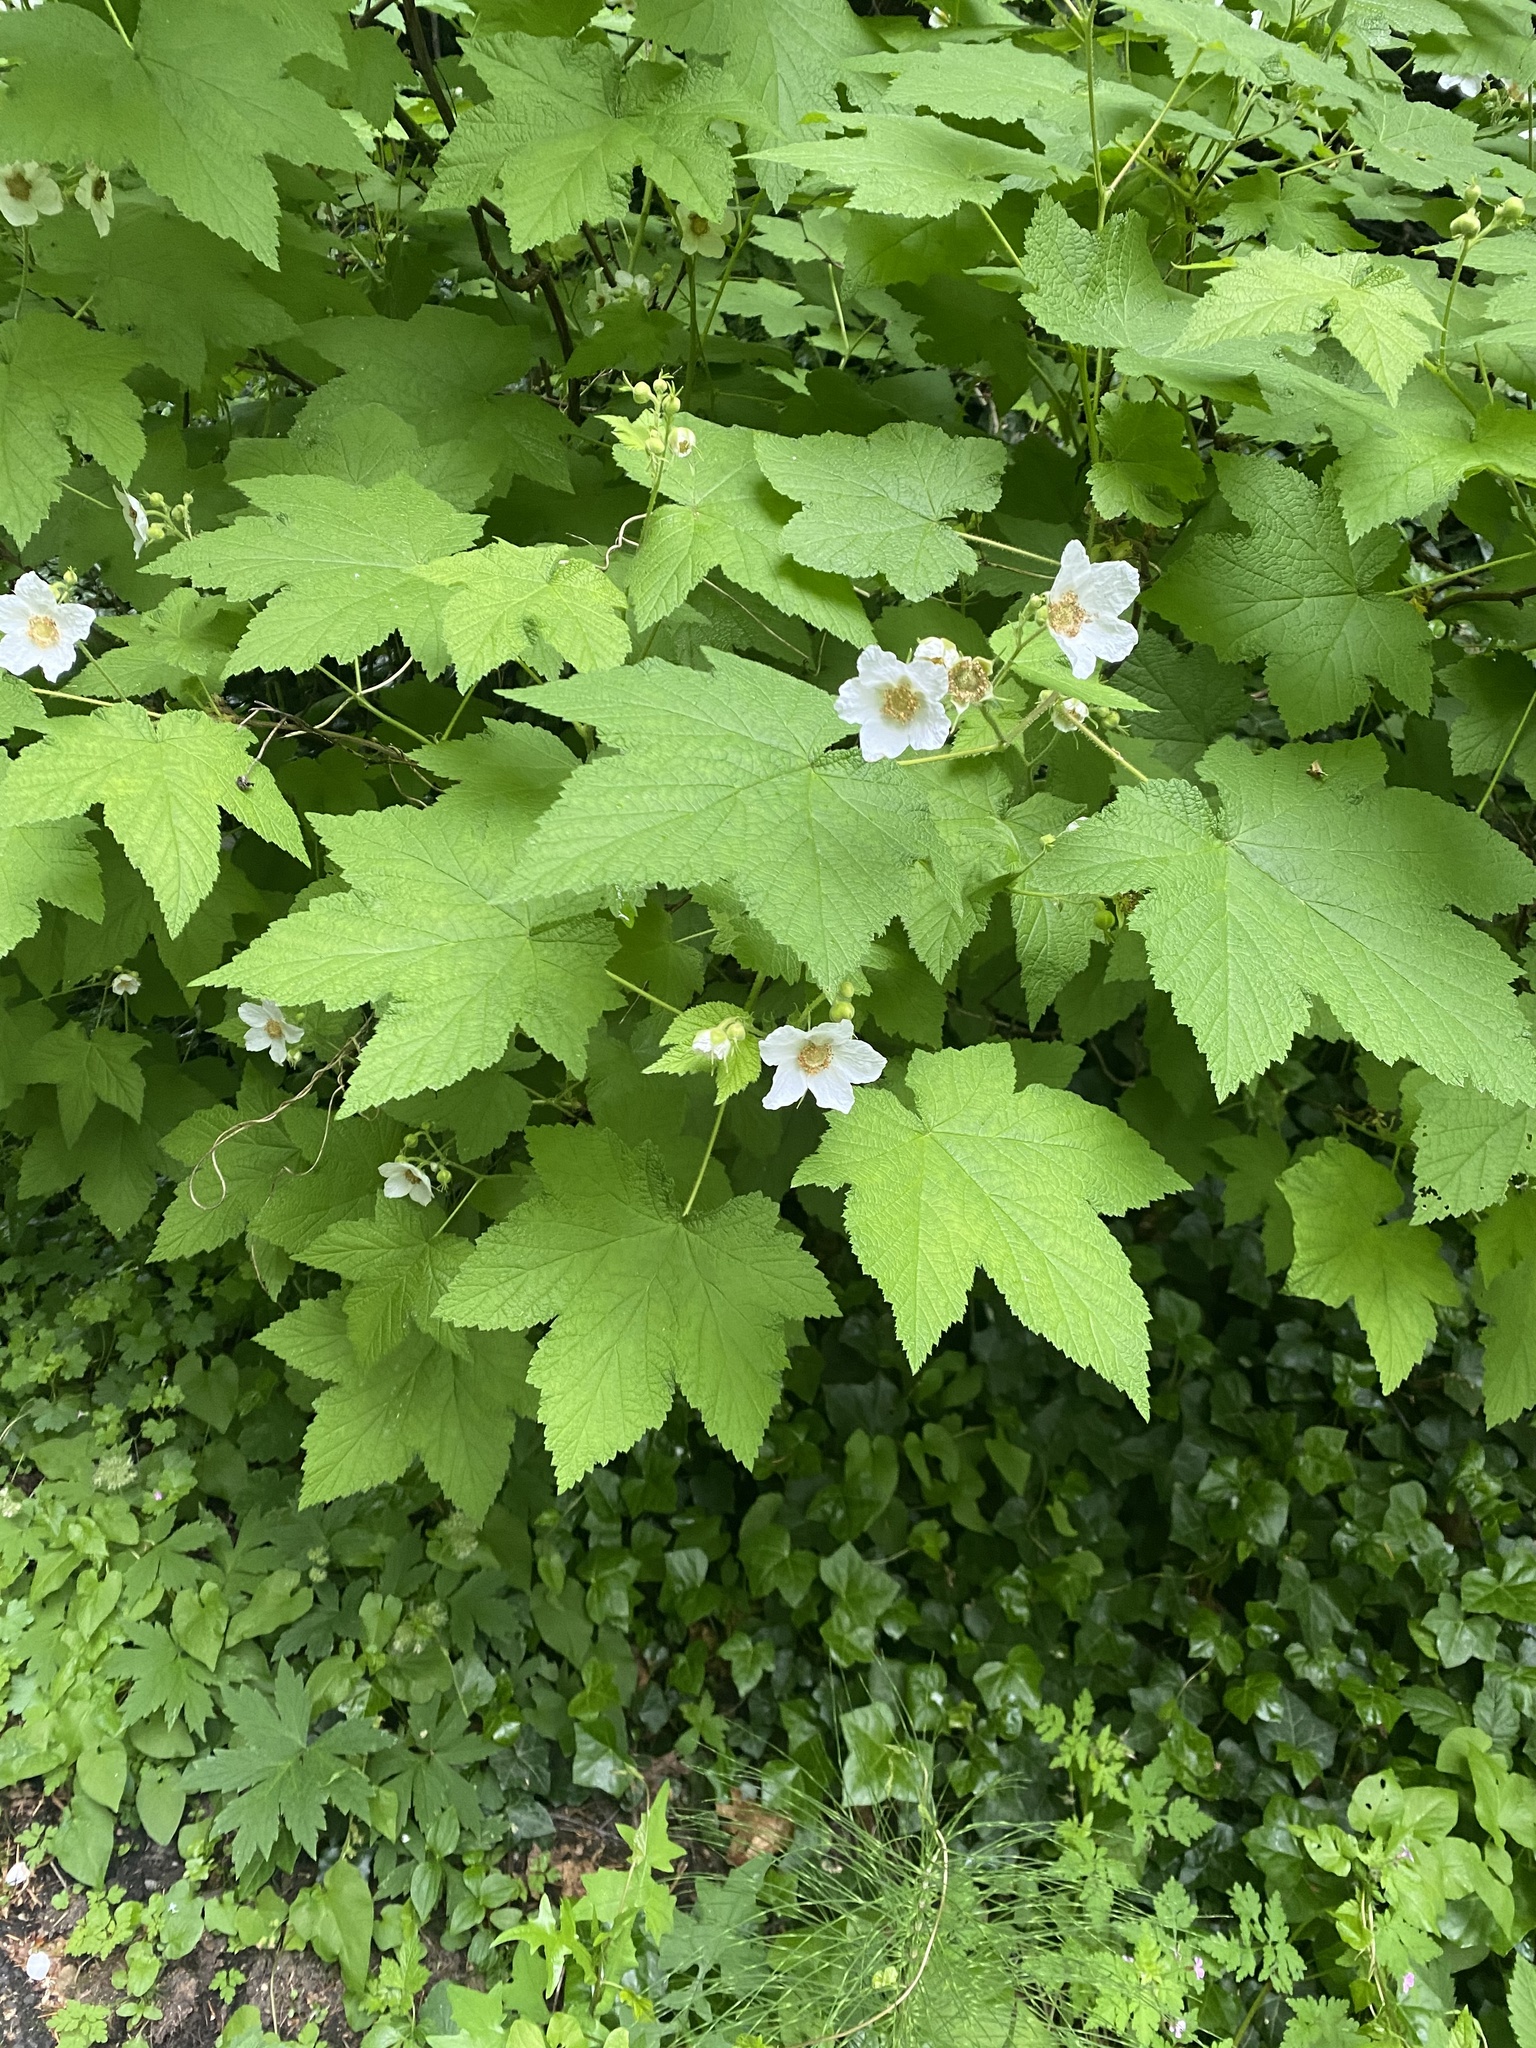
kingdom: Plantae
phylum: Tracheophyta
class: Magnoliopsida
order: Rosales
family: Rosaceae
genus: Rubus
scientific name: Rubus parviflorus
